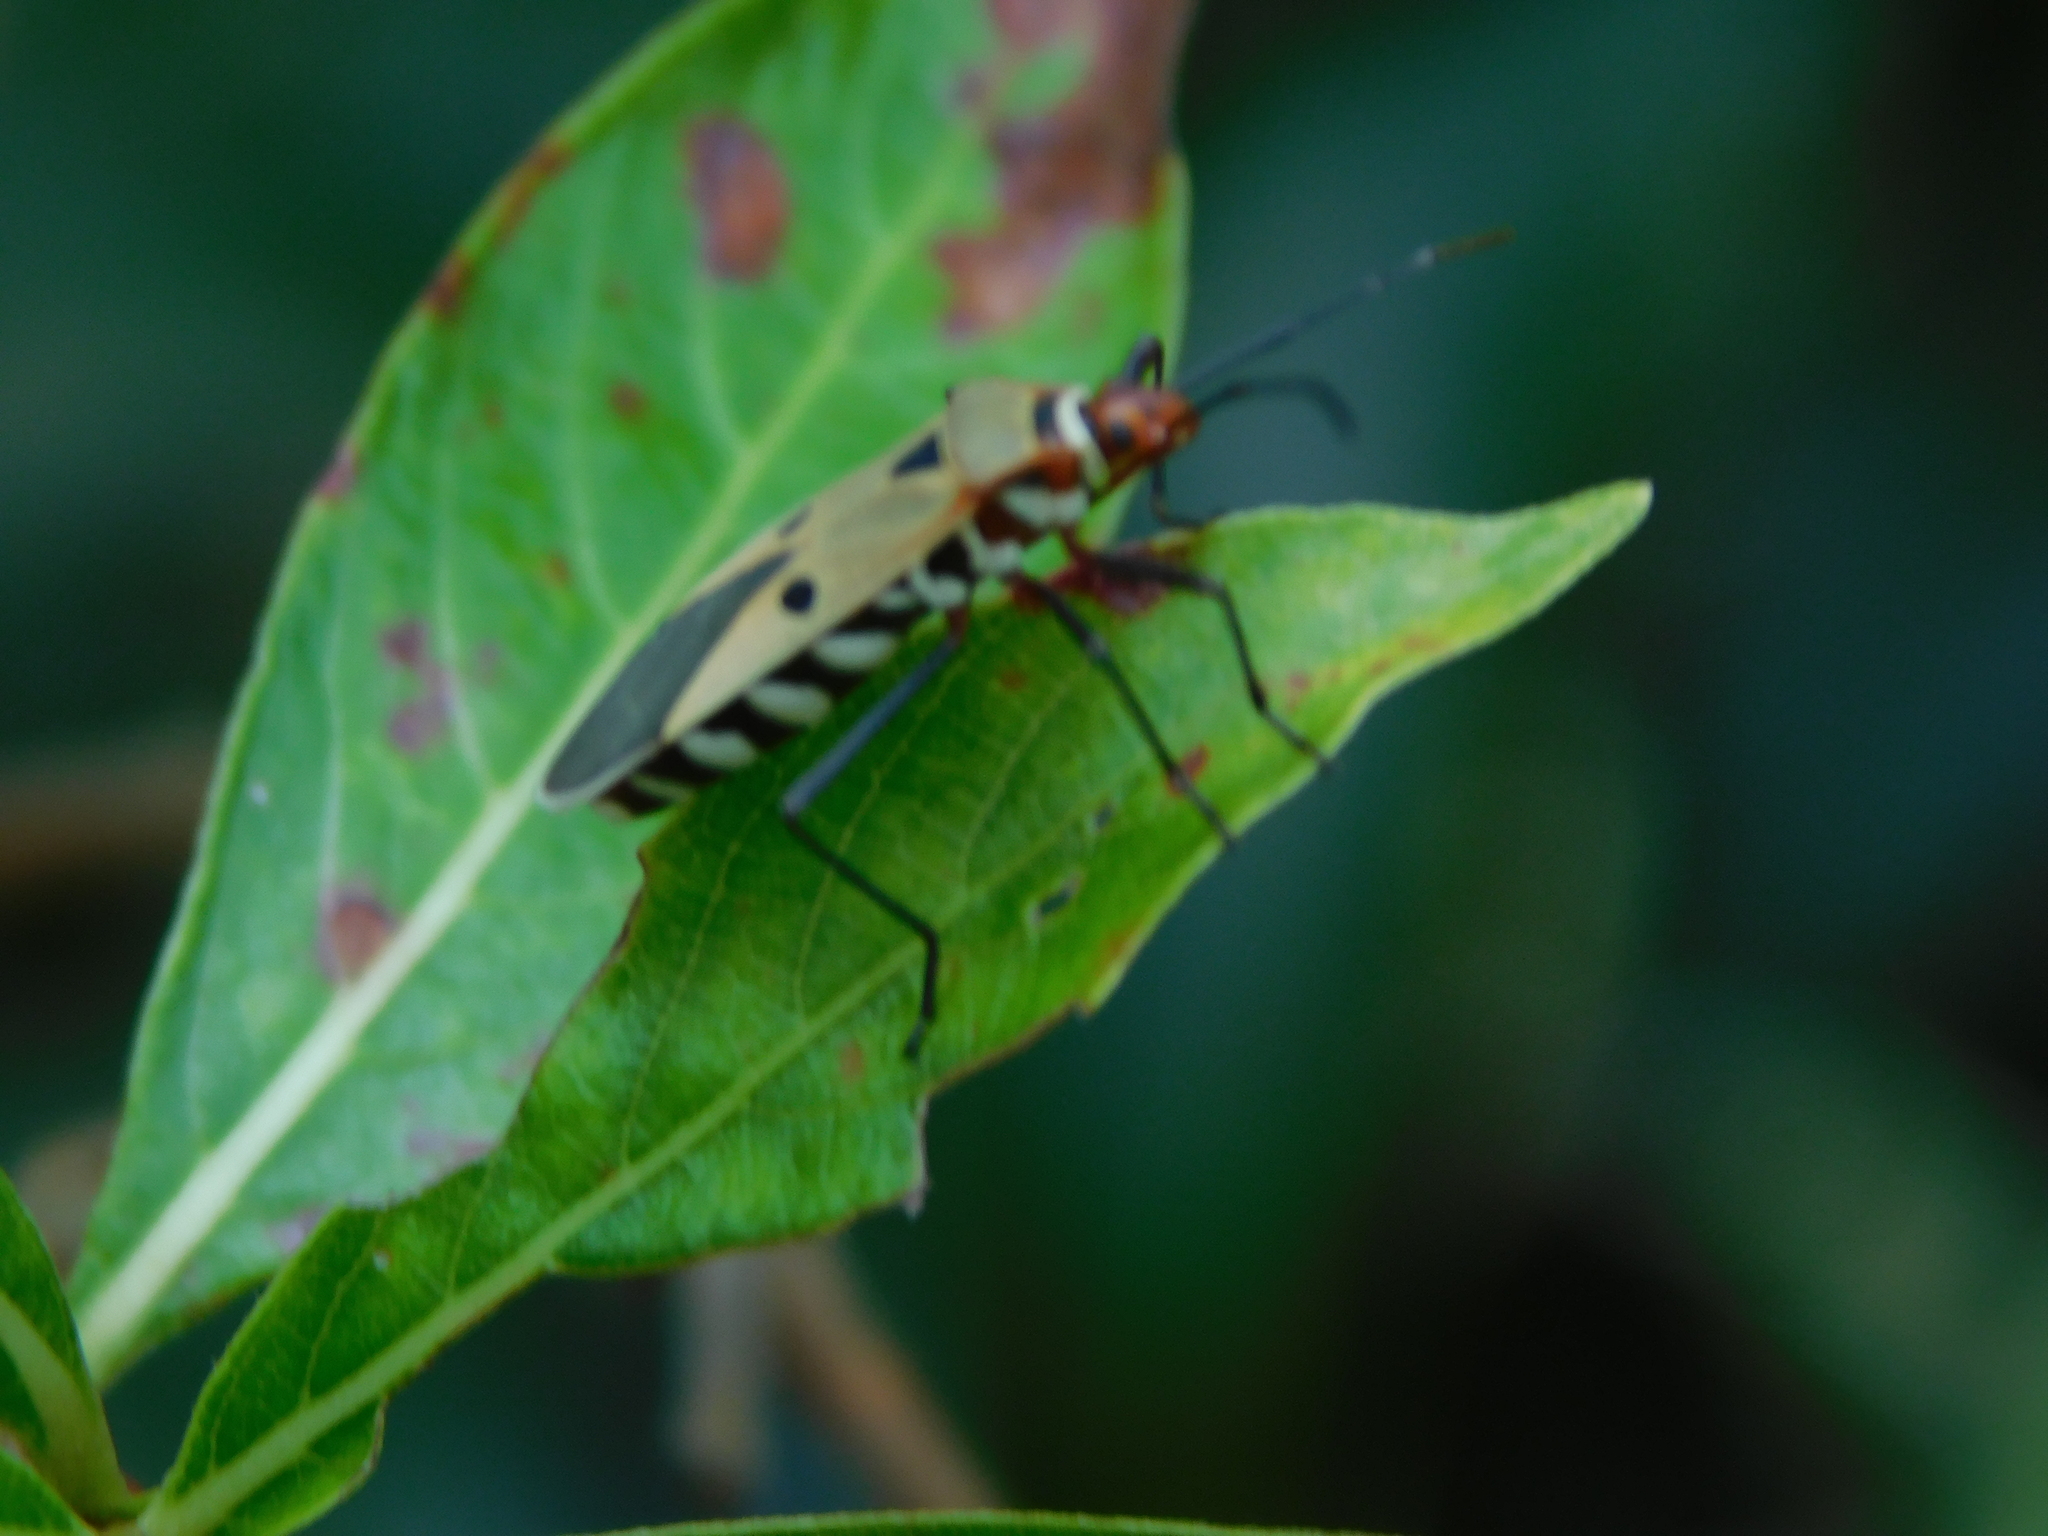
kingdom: Animalia
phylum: Arthropoda
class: Insecta
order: Hemiptera
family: Pyrrhocoridae
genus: Dysdercus
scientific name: Dysdercus
